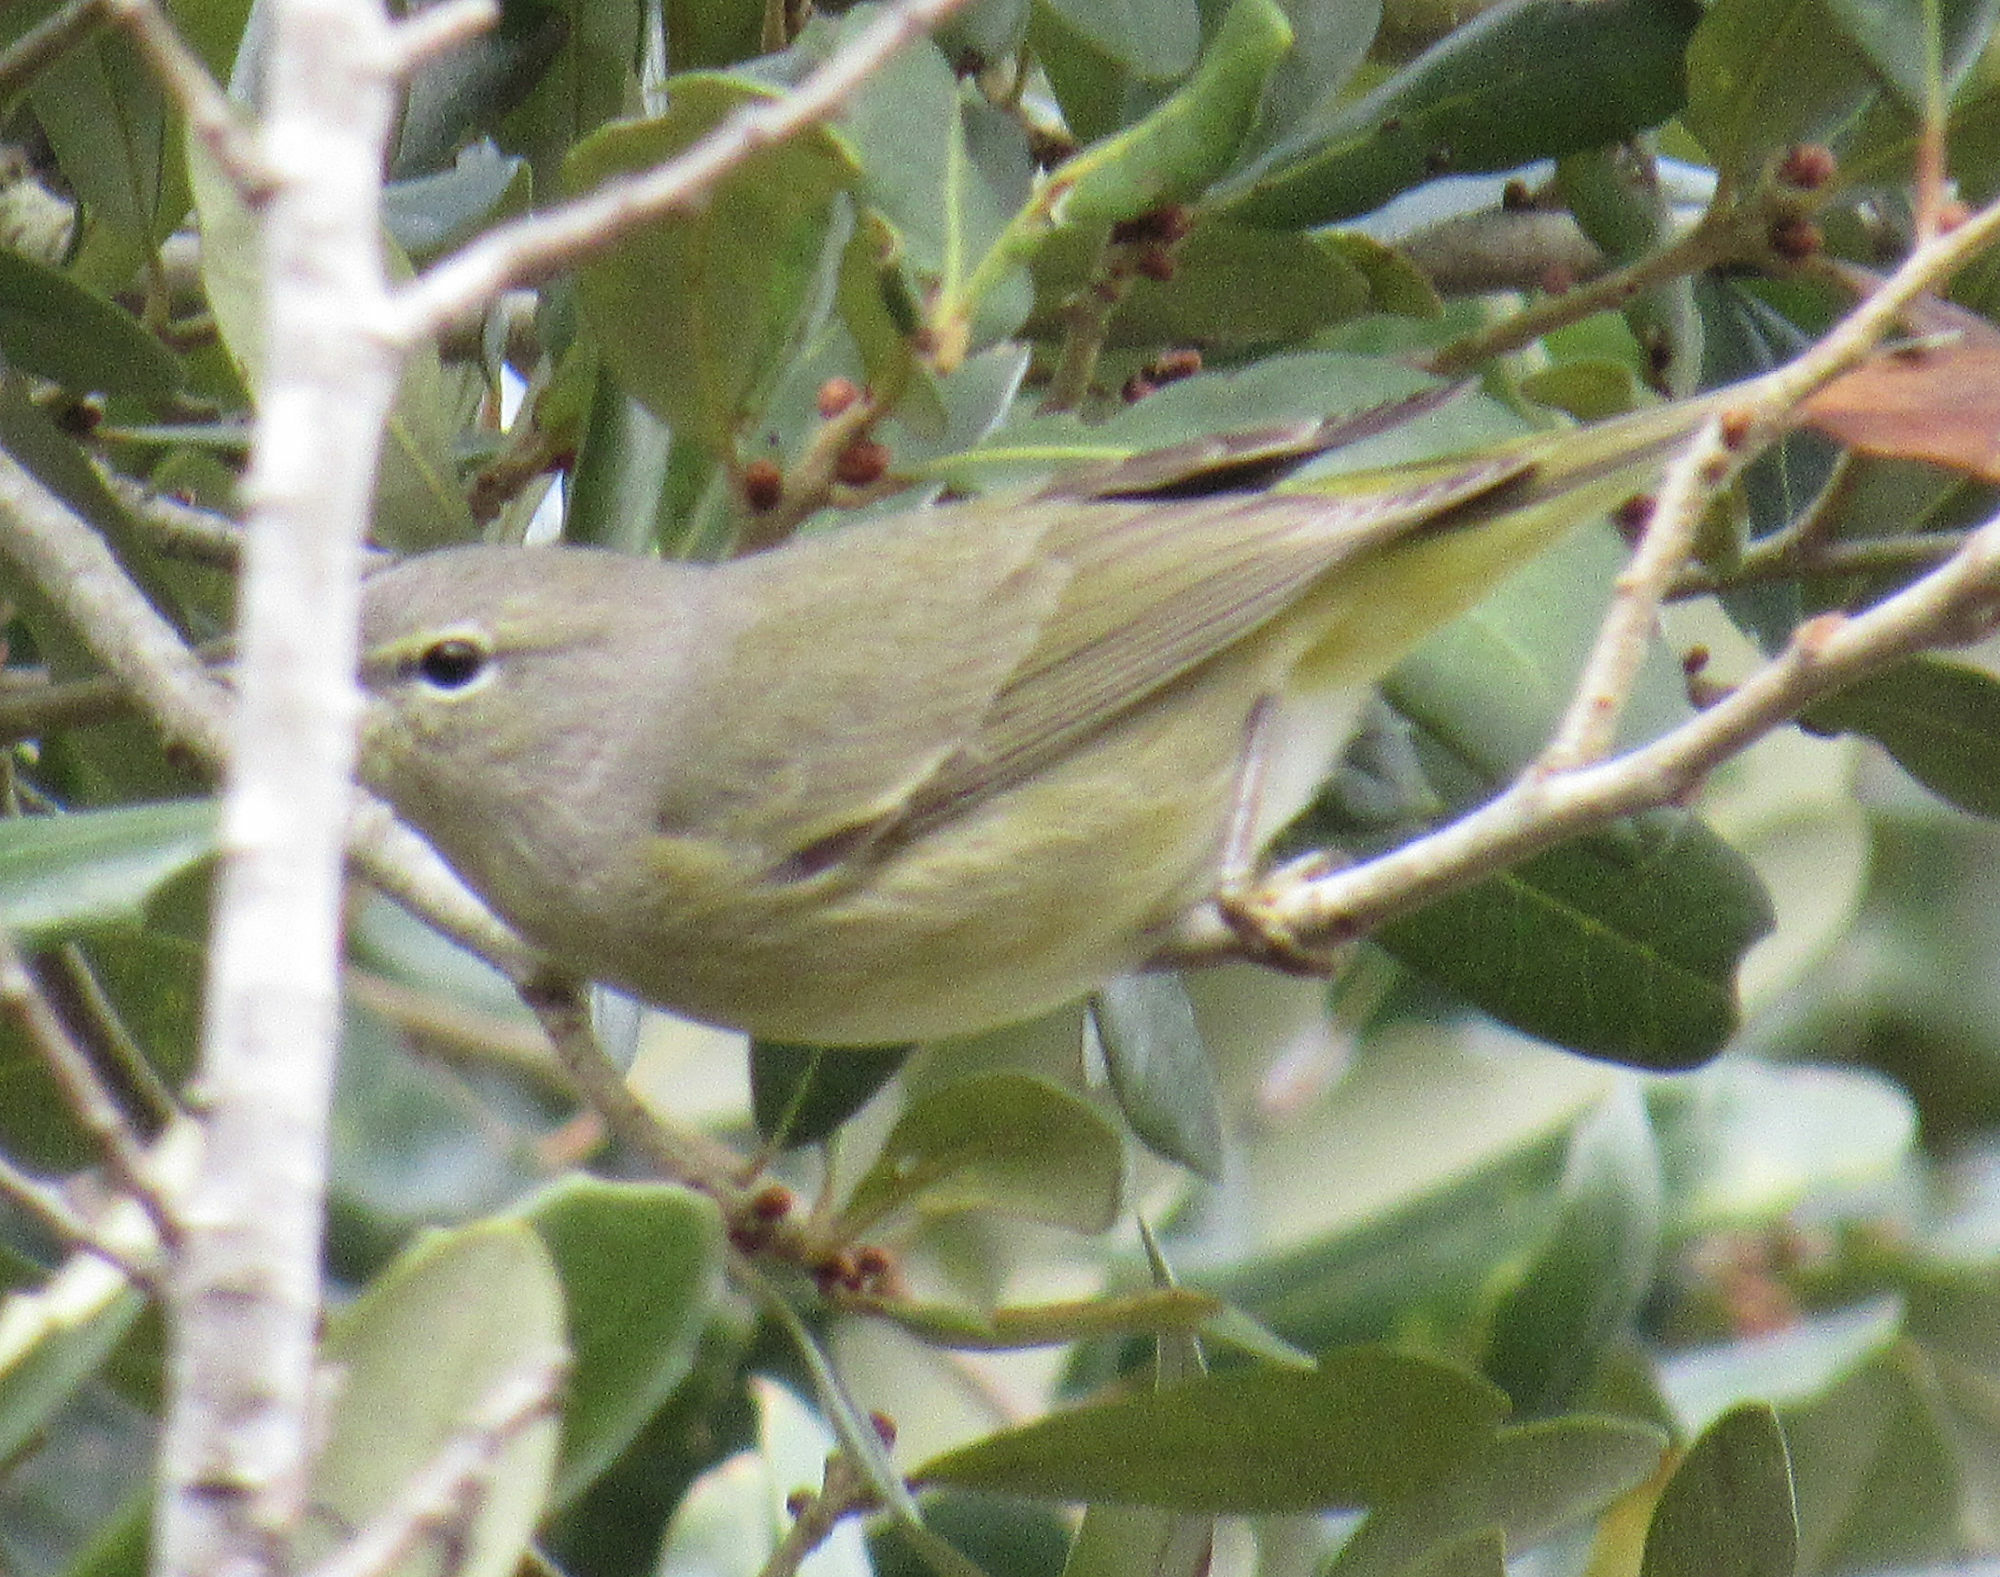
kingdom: Animalia
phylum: Chordata
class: Aves
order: Passeriformes
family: Parulidae
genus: Leiothlypis
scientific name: Leiothlypis celata
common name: Orange-crowned warbler
